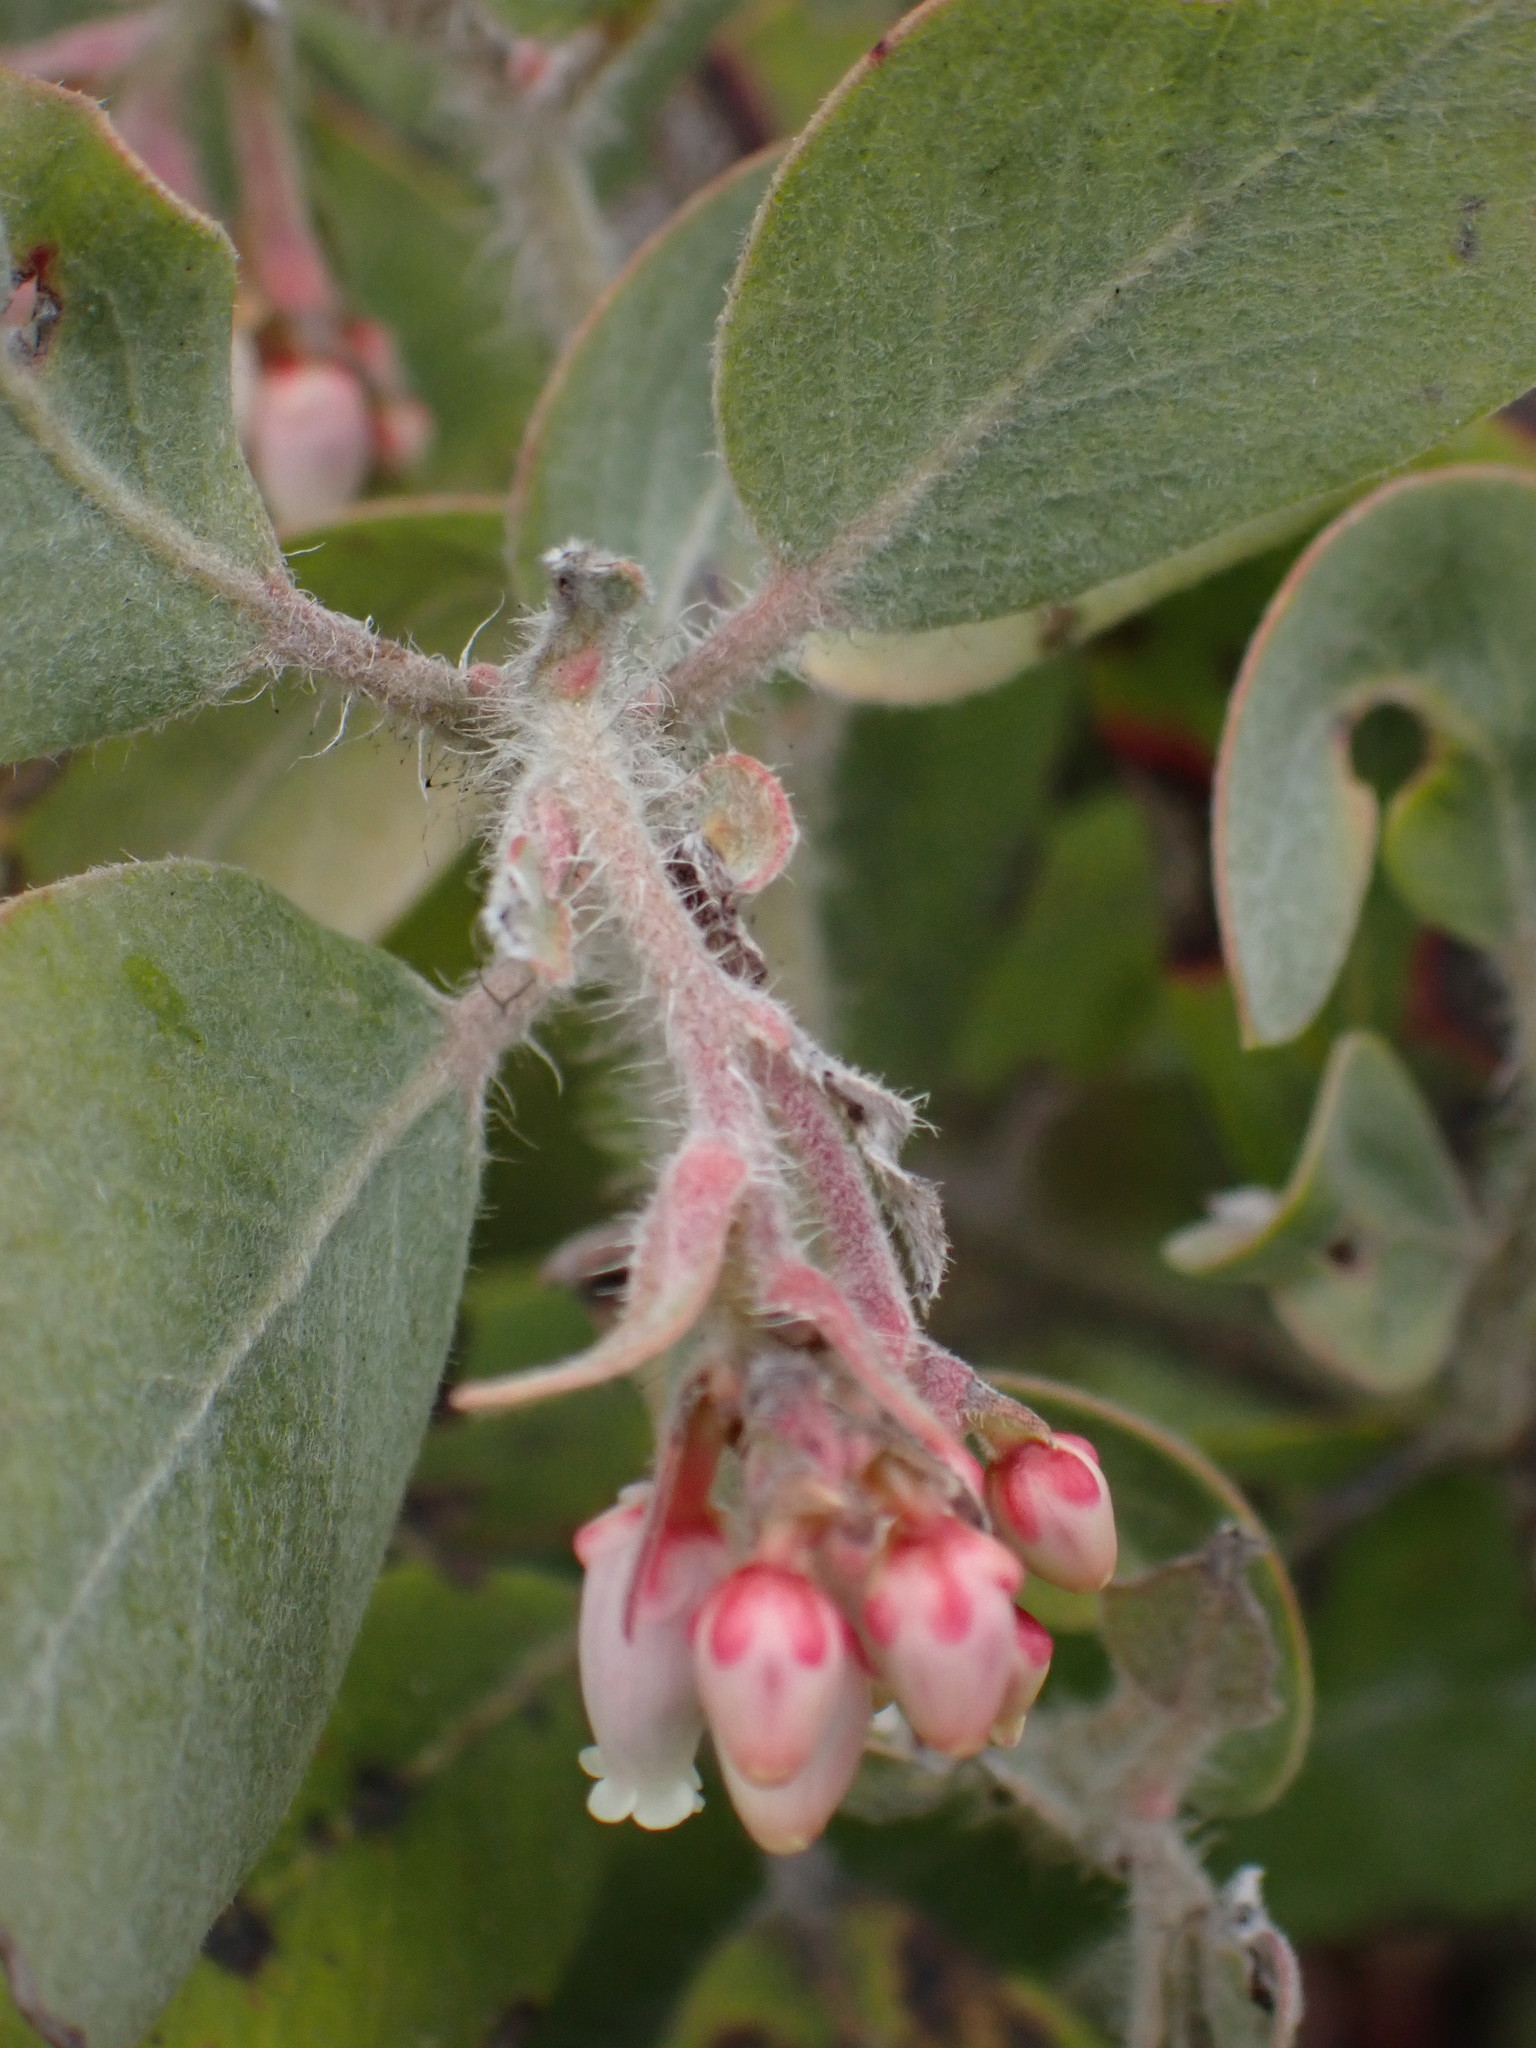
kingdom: Plantae
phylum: Tracheophyta
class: Magnoliopsida
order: Ericales
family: Ericaceae
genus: Arctostaphylos
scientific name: Arctostaphylos columbiana
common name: Bristly bearberry
